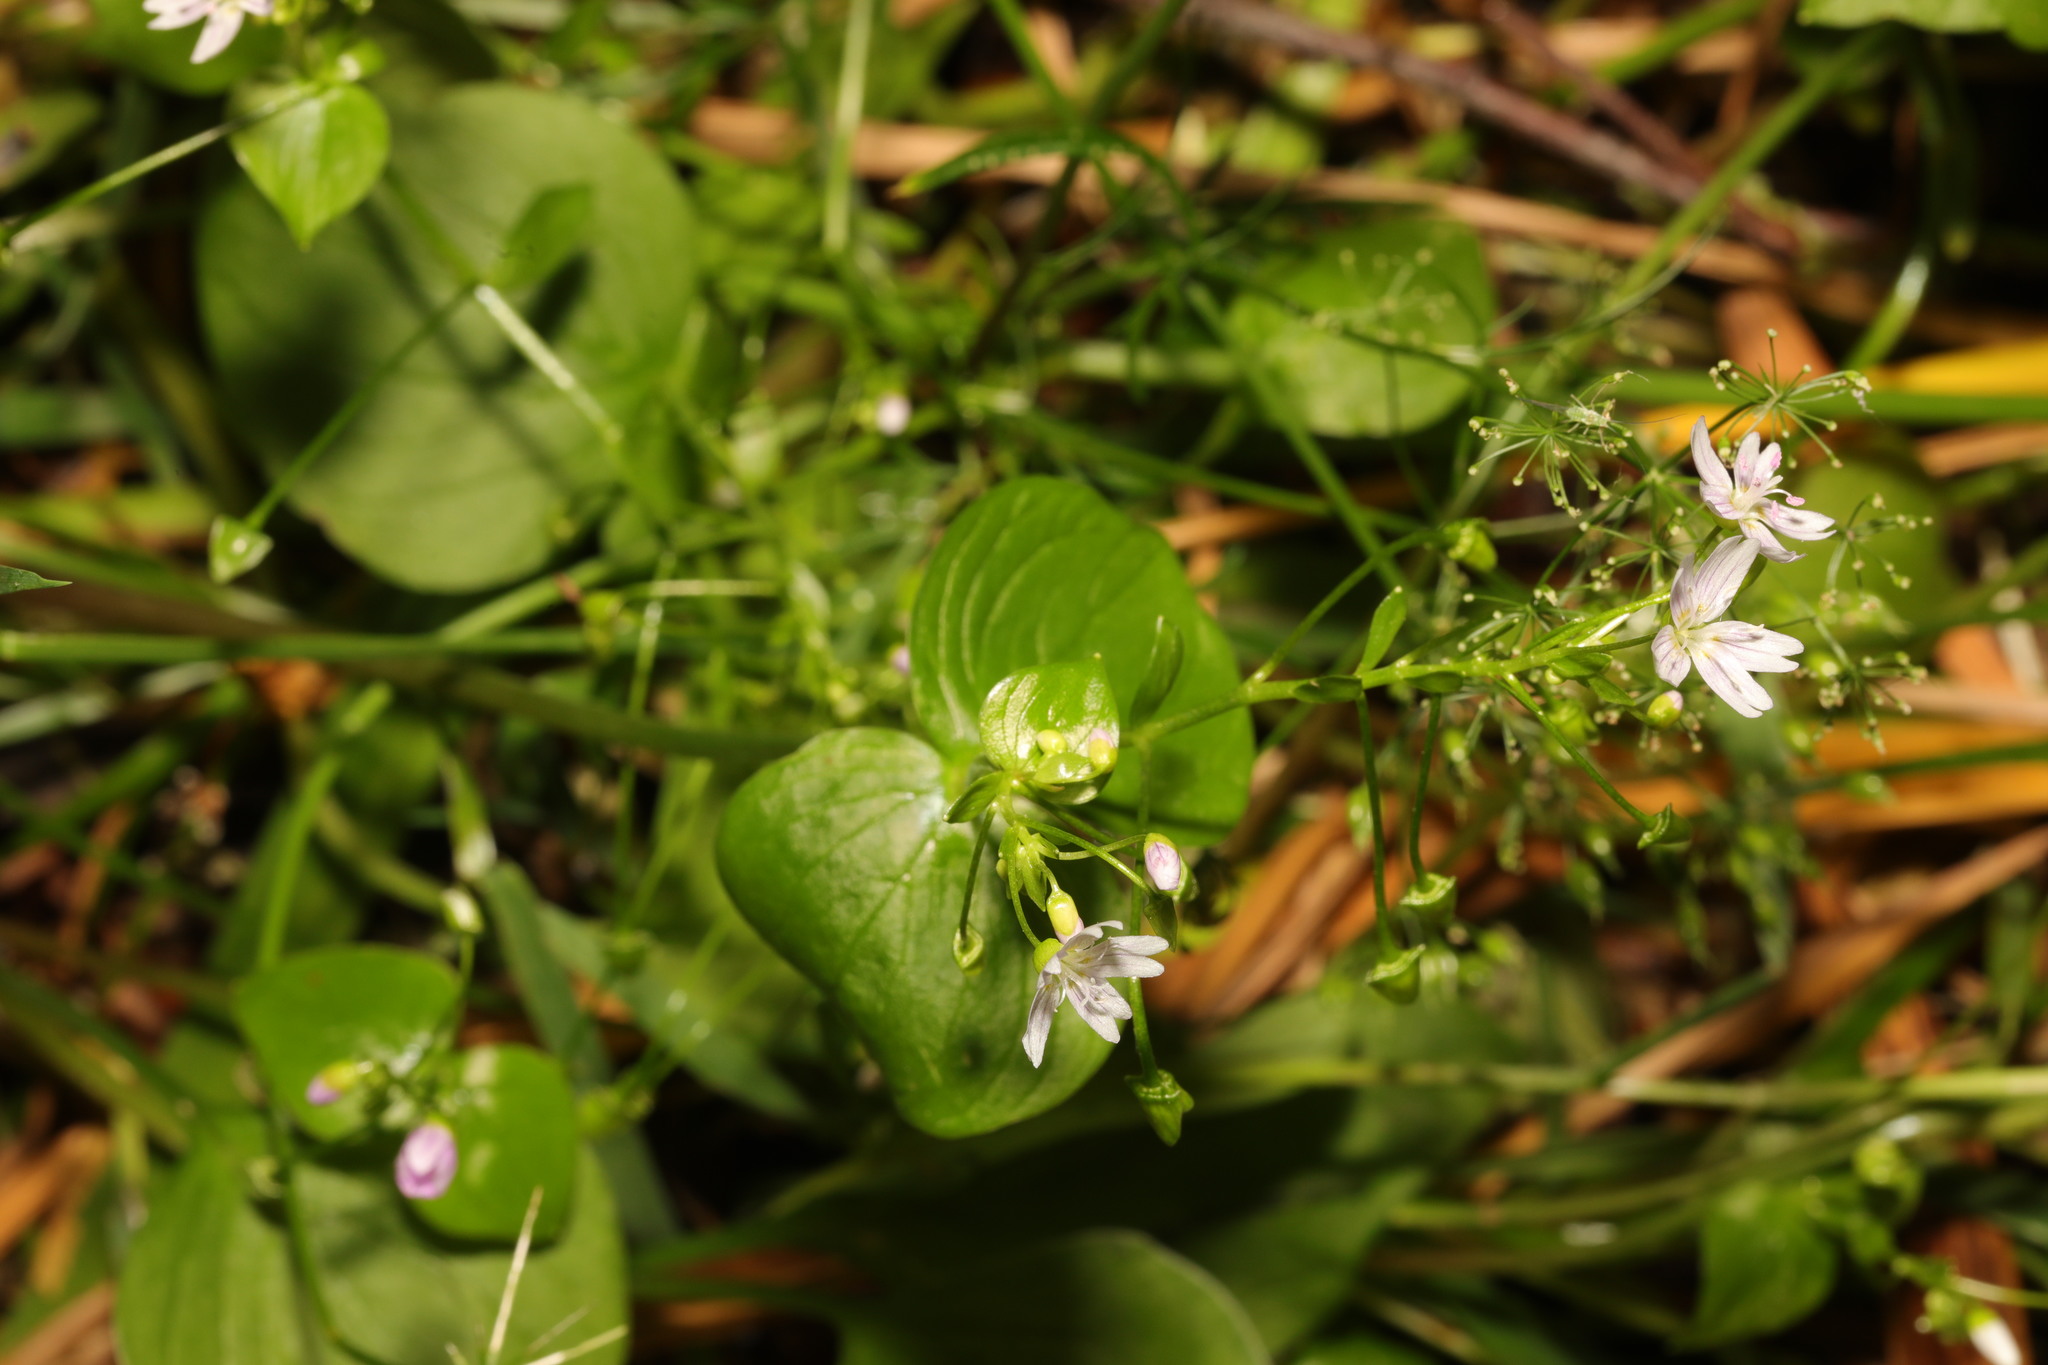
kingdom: Plantae
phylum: Tracheophyta
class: Magnoliopsida
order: Caryophyllales
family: Montiaceae
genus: Claytonia
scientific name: Claytonia sibirica
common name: Pink purslane
